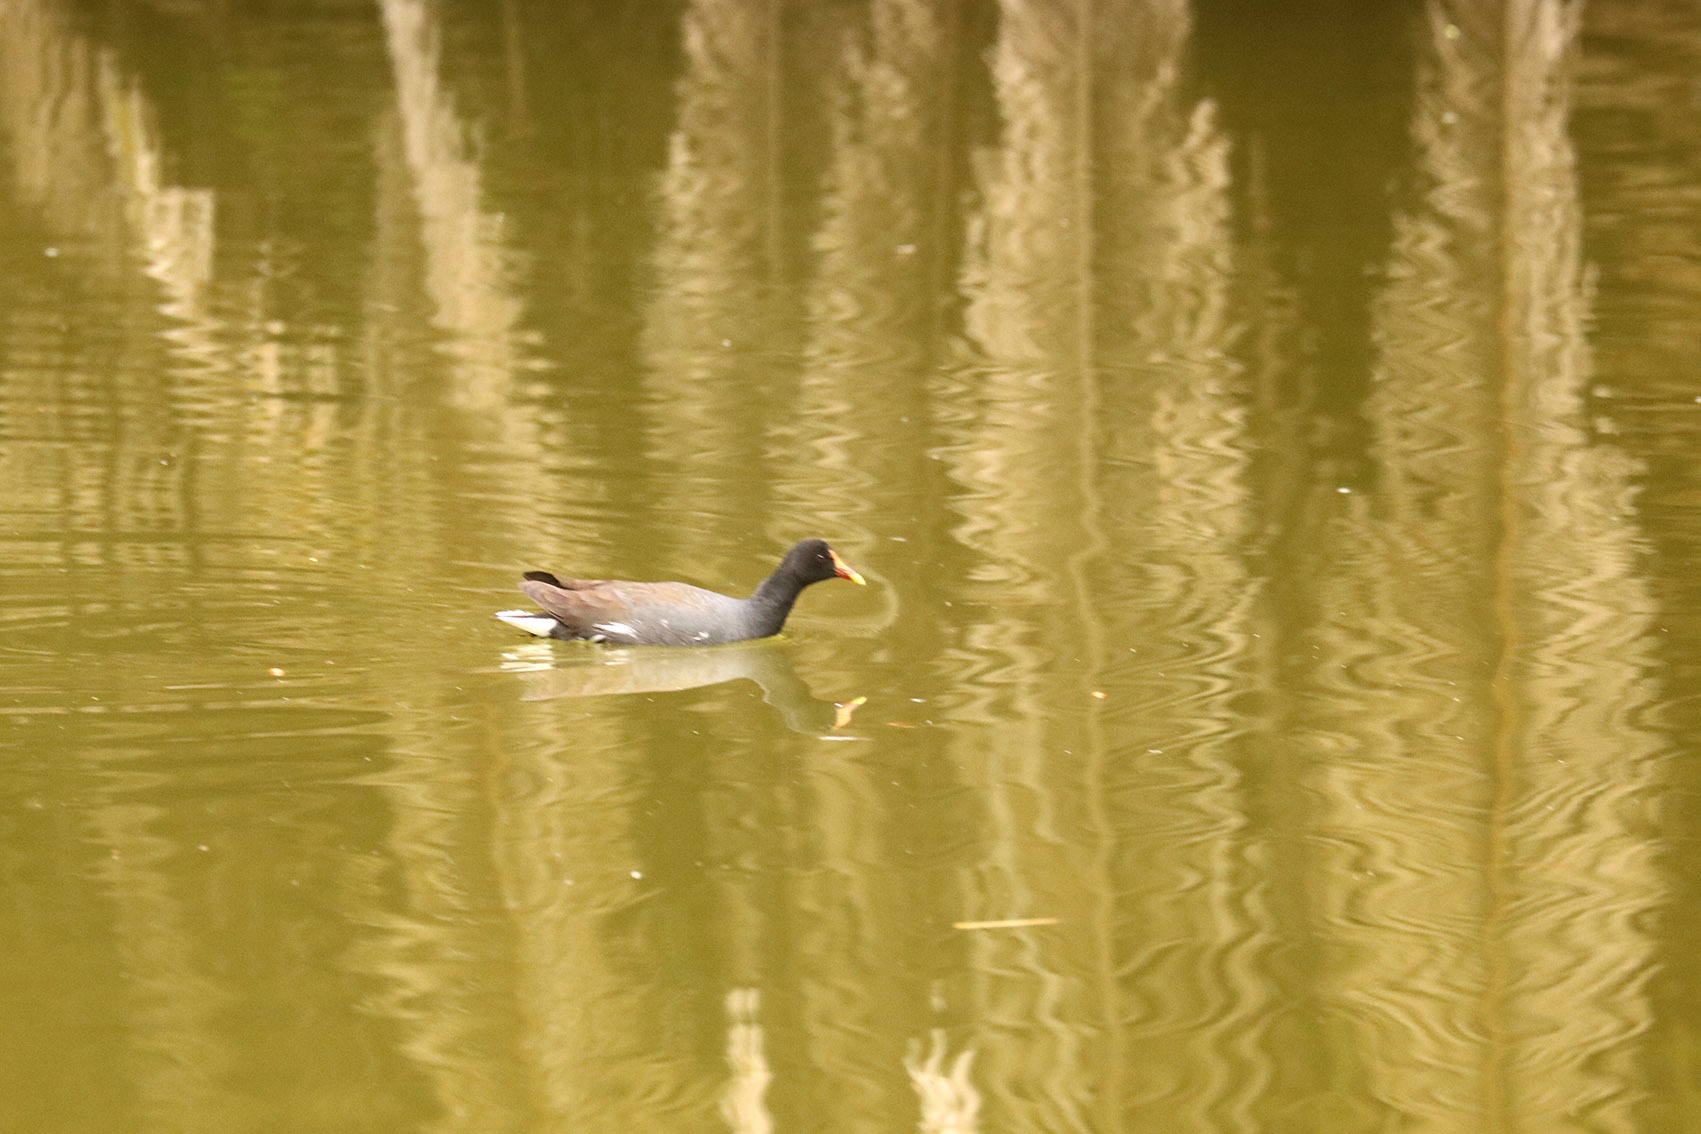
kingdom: Animalia
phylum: Chordata
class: Aves
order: Gruiformes
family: Rallidae
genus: Gallinula
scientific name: Gallinula chloropus
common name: Common moorhen
